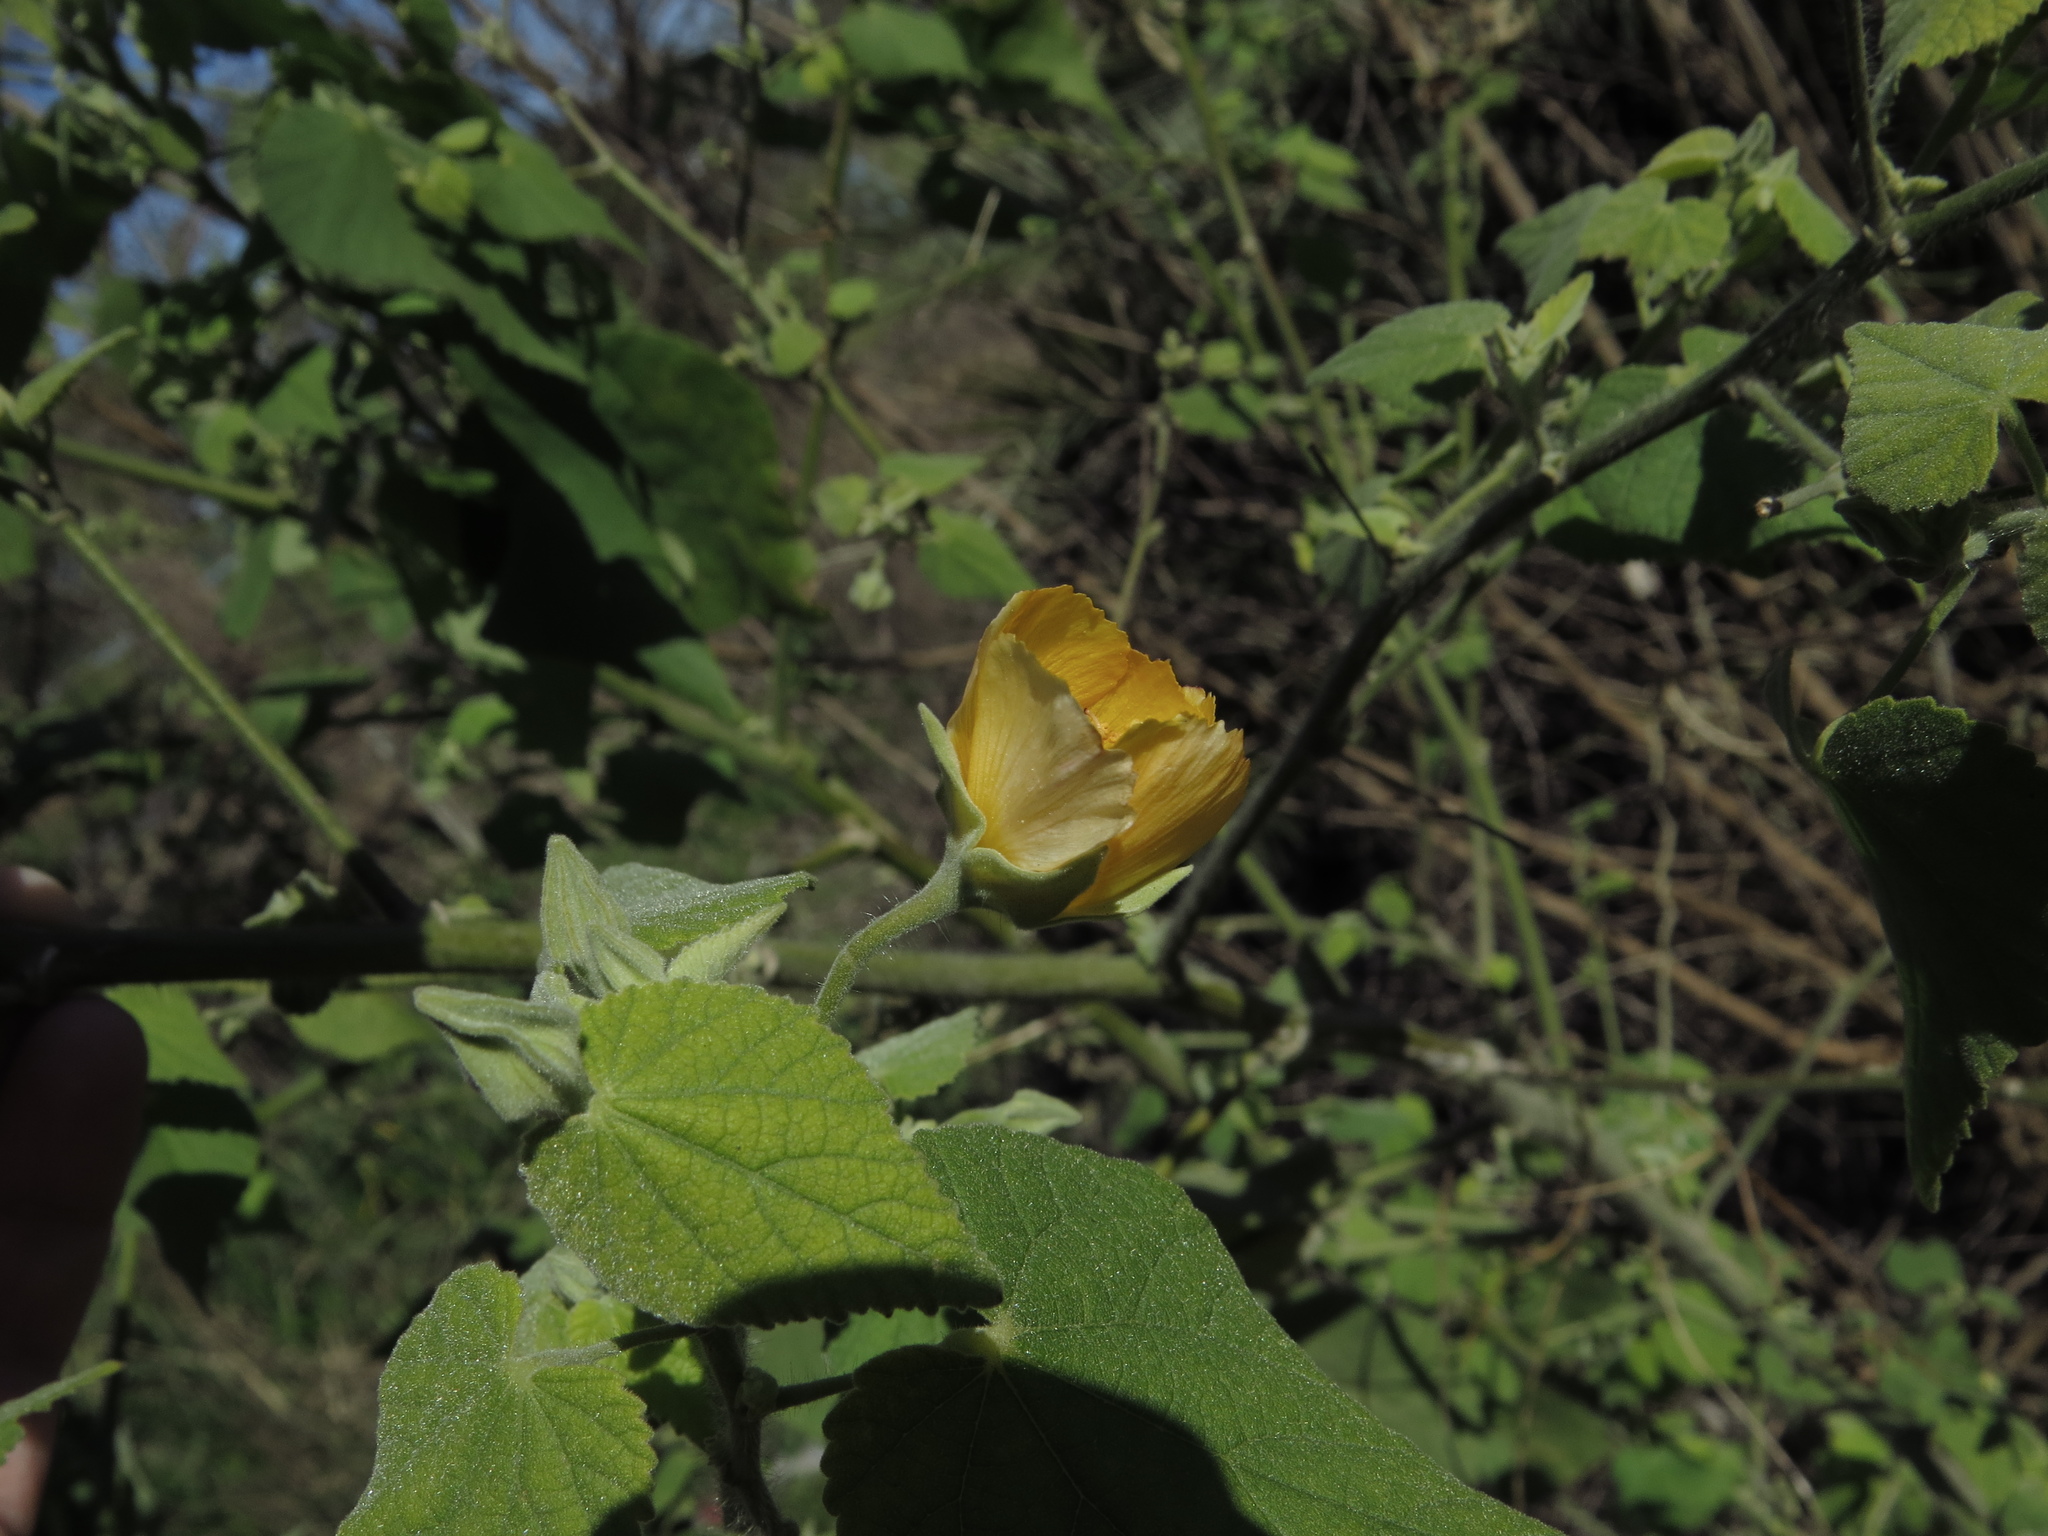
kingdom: Plantae
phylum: Tracheophyta
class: Magnoliopsida
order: Malvales
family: Malvaceae
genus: Abutilon
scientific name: Abutilon grandifolium
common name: Hairy abutilon
